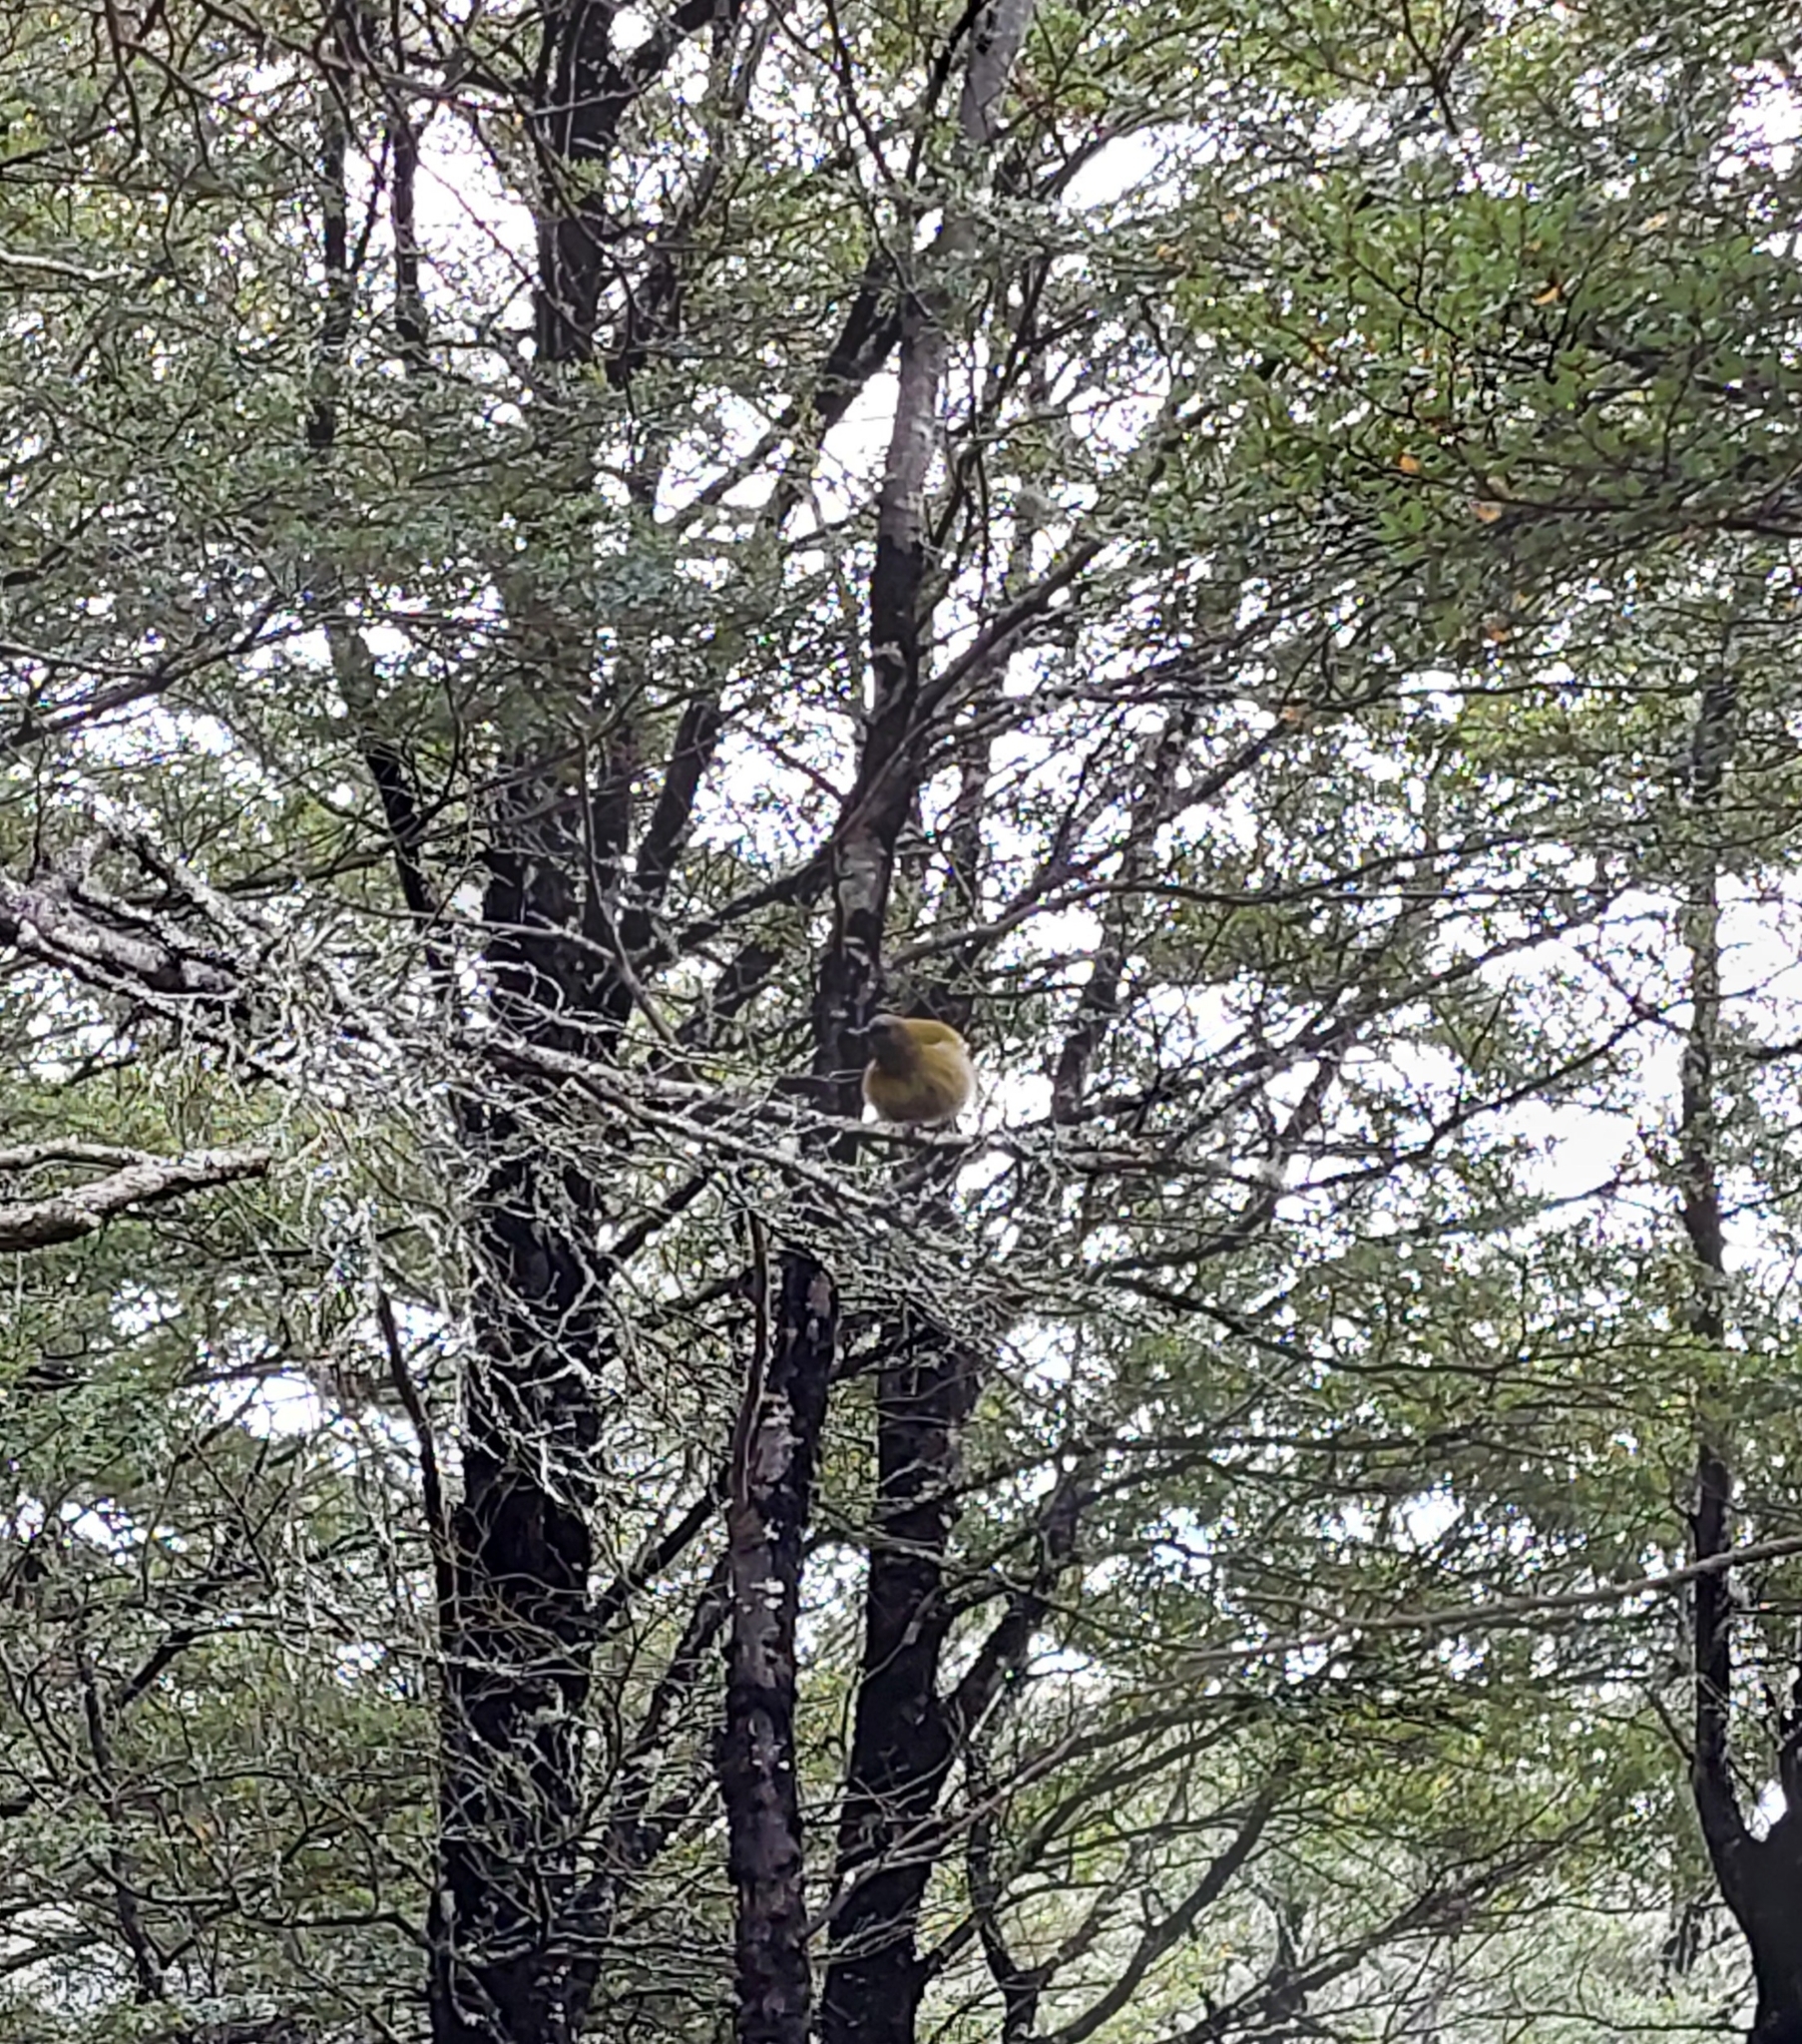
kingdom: Animalia
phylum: Chordata
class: Aves
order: Passeriformes
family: Meliphagidae
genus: Anthornis
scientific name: Anthornis melanura
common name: New zealand bellbird
